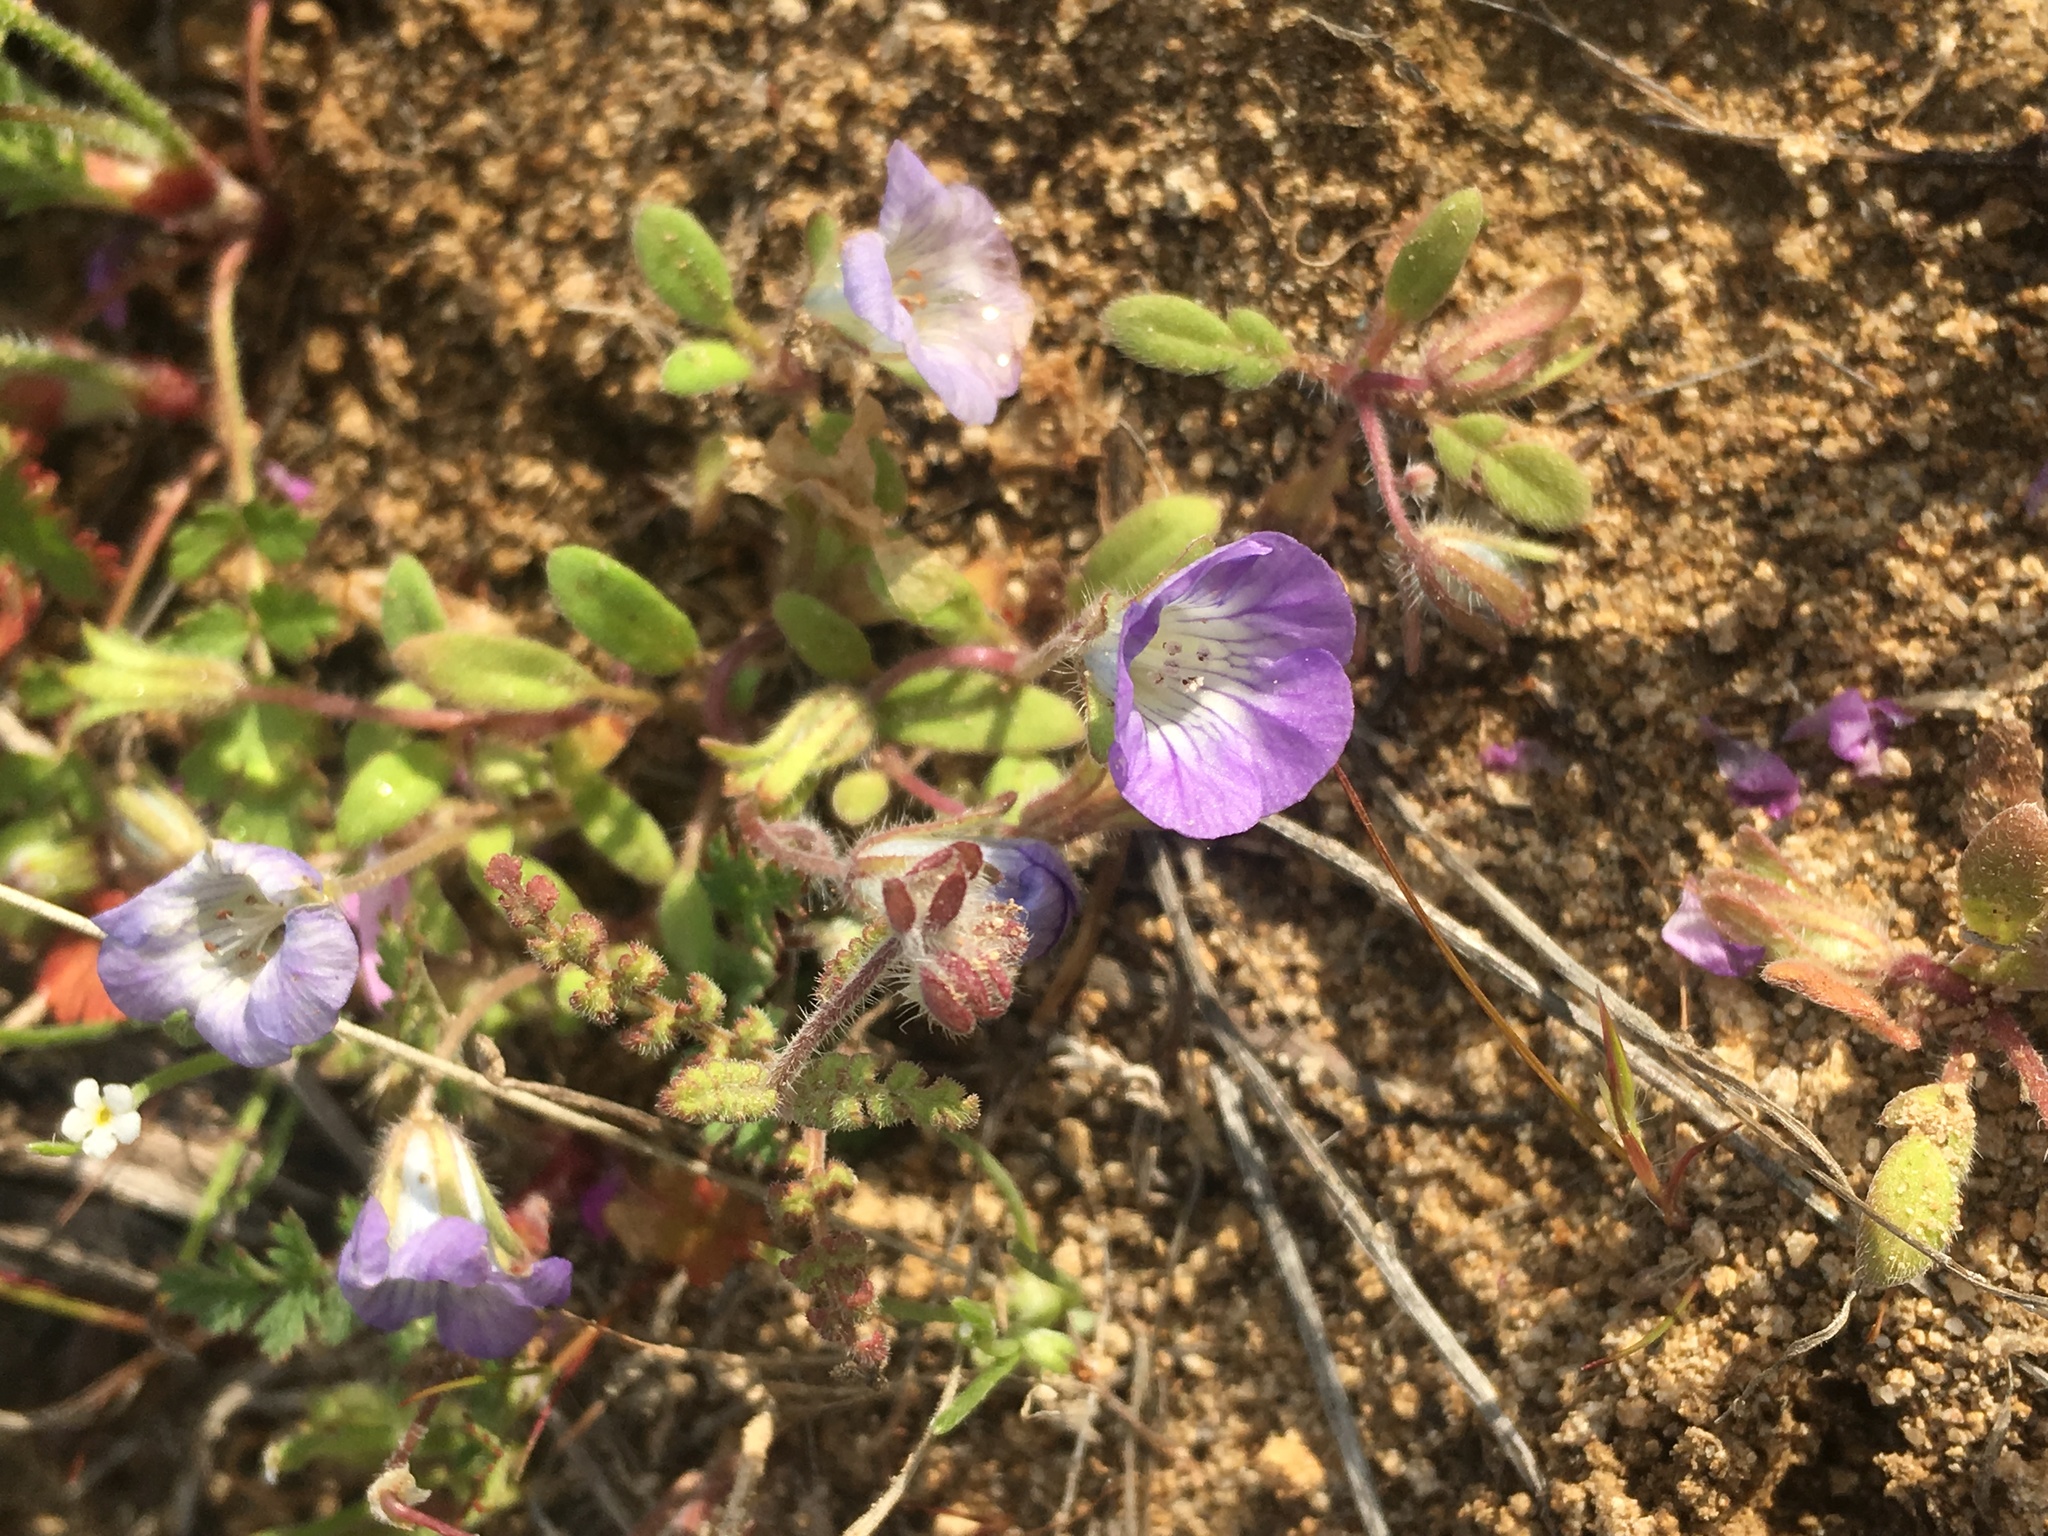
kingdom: Plantae
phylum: Tracheophyta
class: Magnoliopsida
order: Boraginales
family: Hydrophyllaceae
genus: Phacelia
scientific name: Phacelia douglasii
